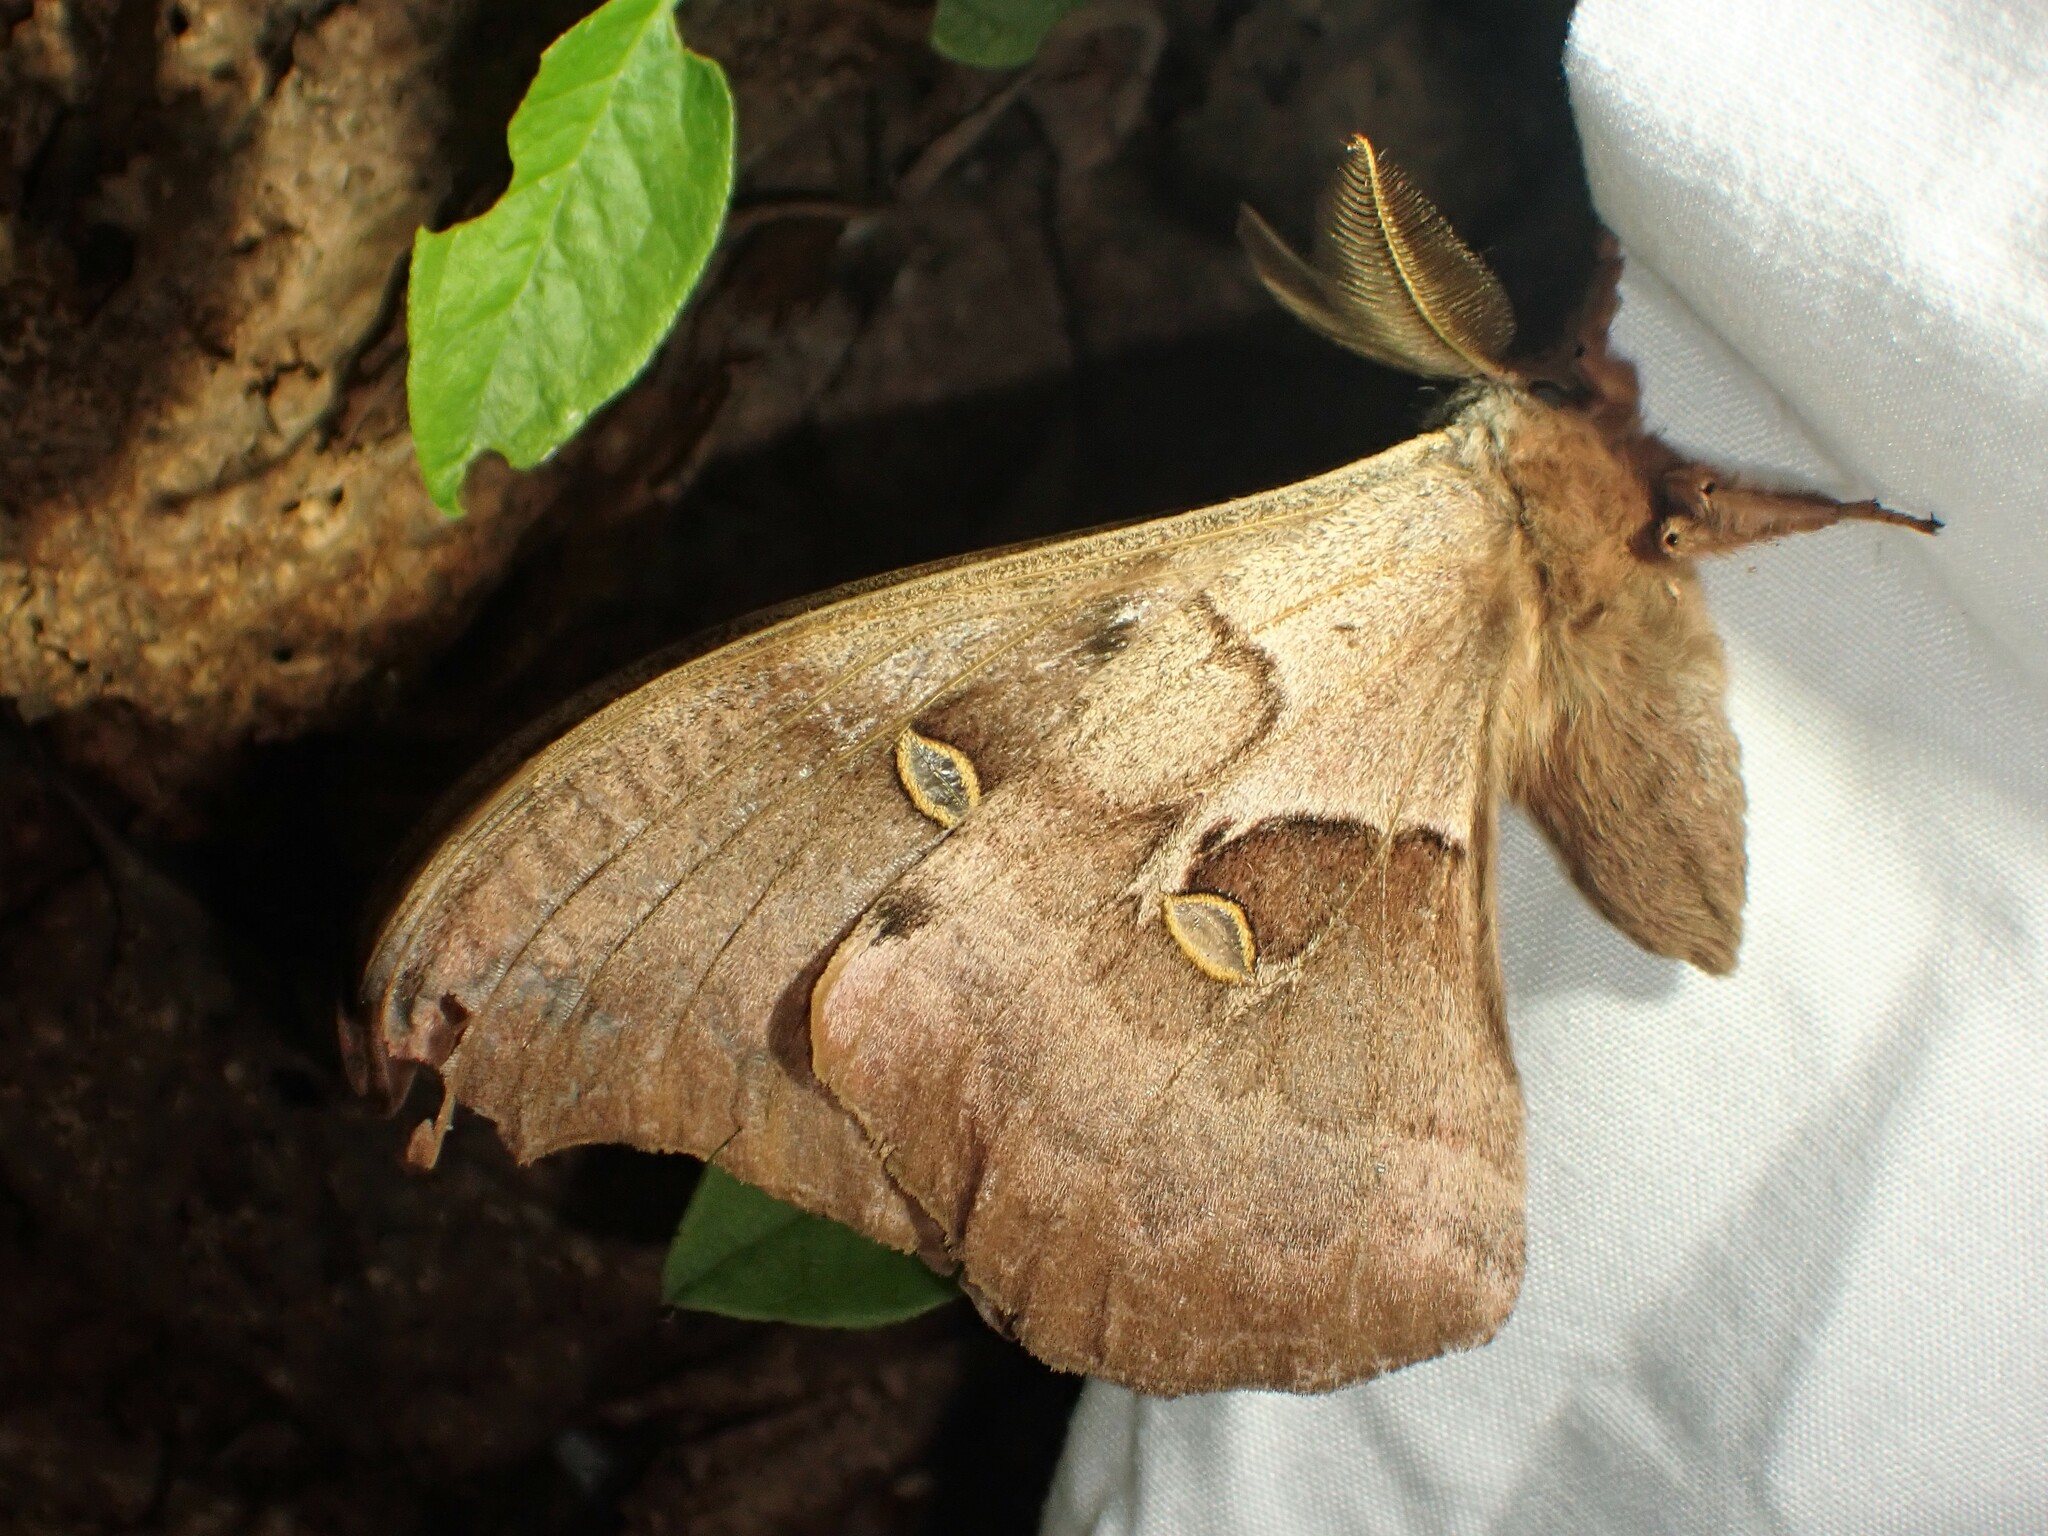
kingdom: Animalia
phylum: Arthropoda
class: Insecta
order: Lepidoptera
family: Saturniidae
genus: Antheraea
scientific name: Antheraea polyphemus
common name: Polyphemus moth
